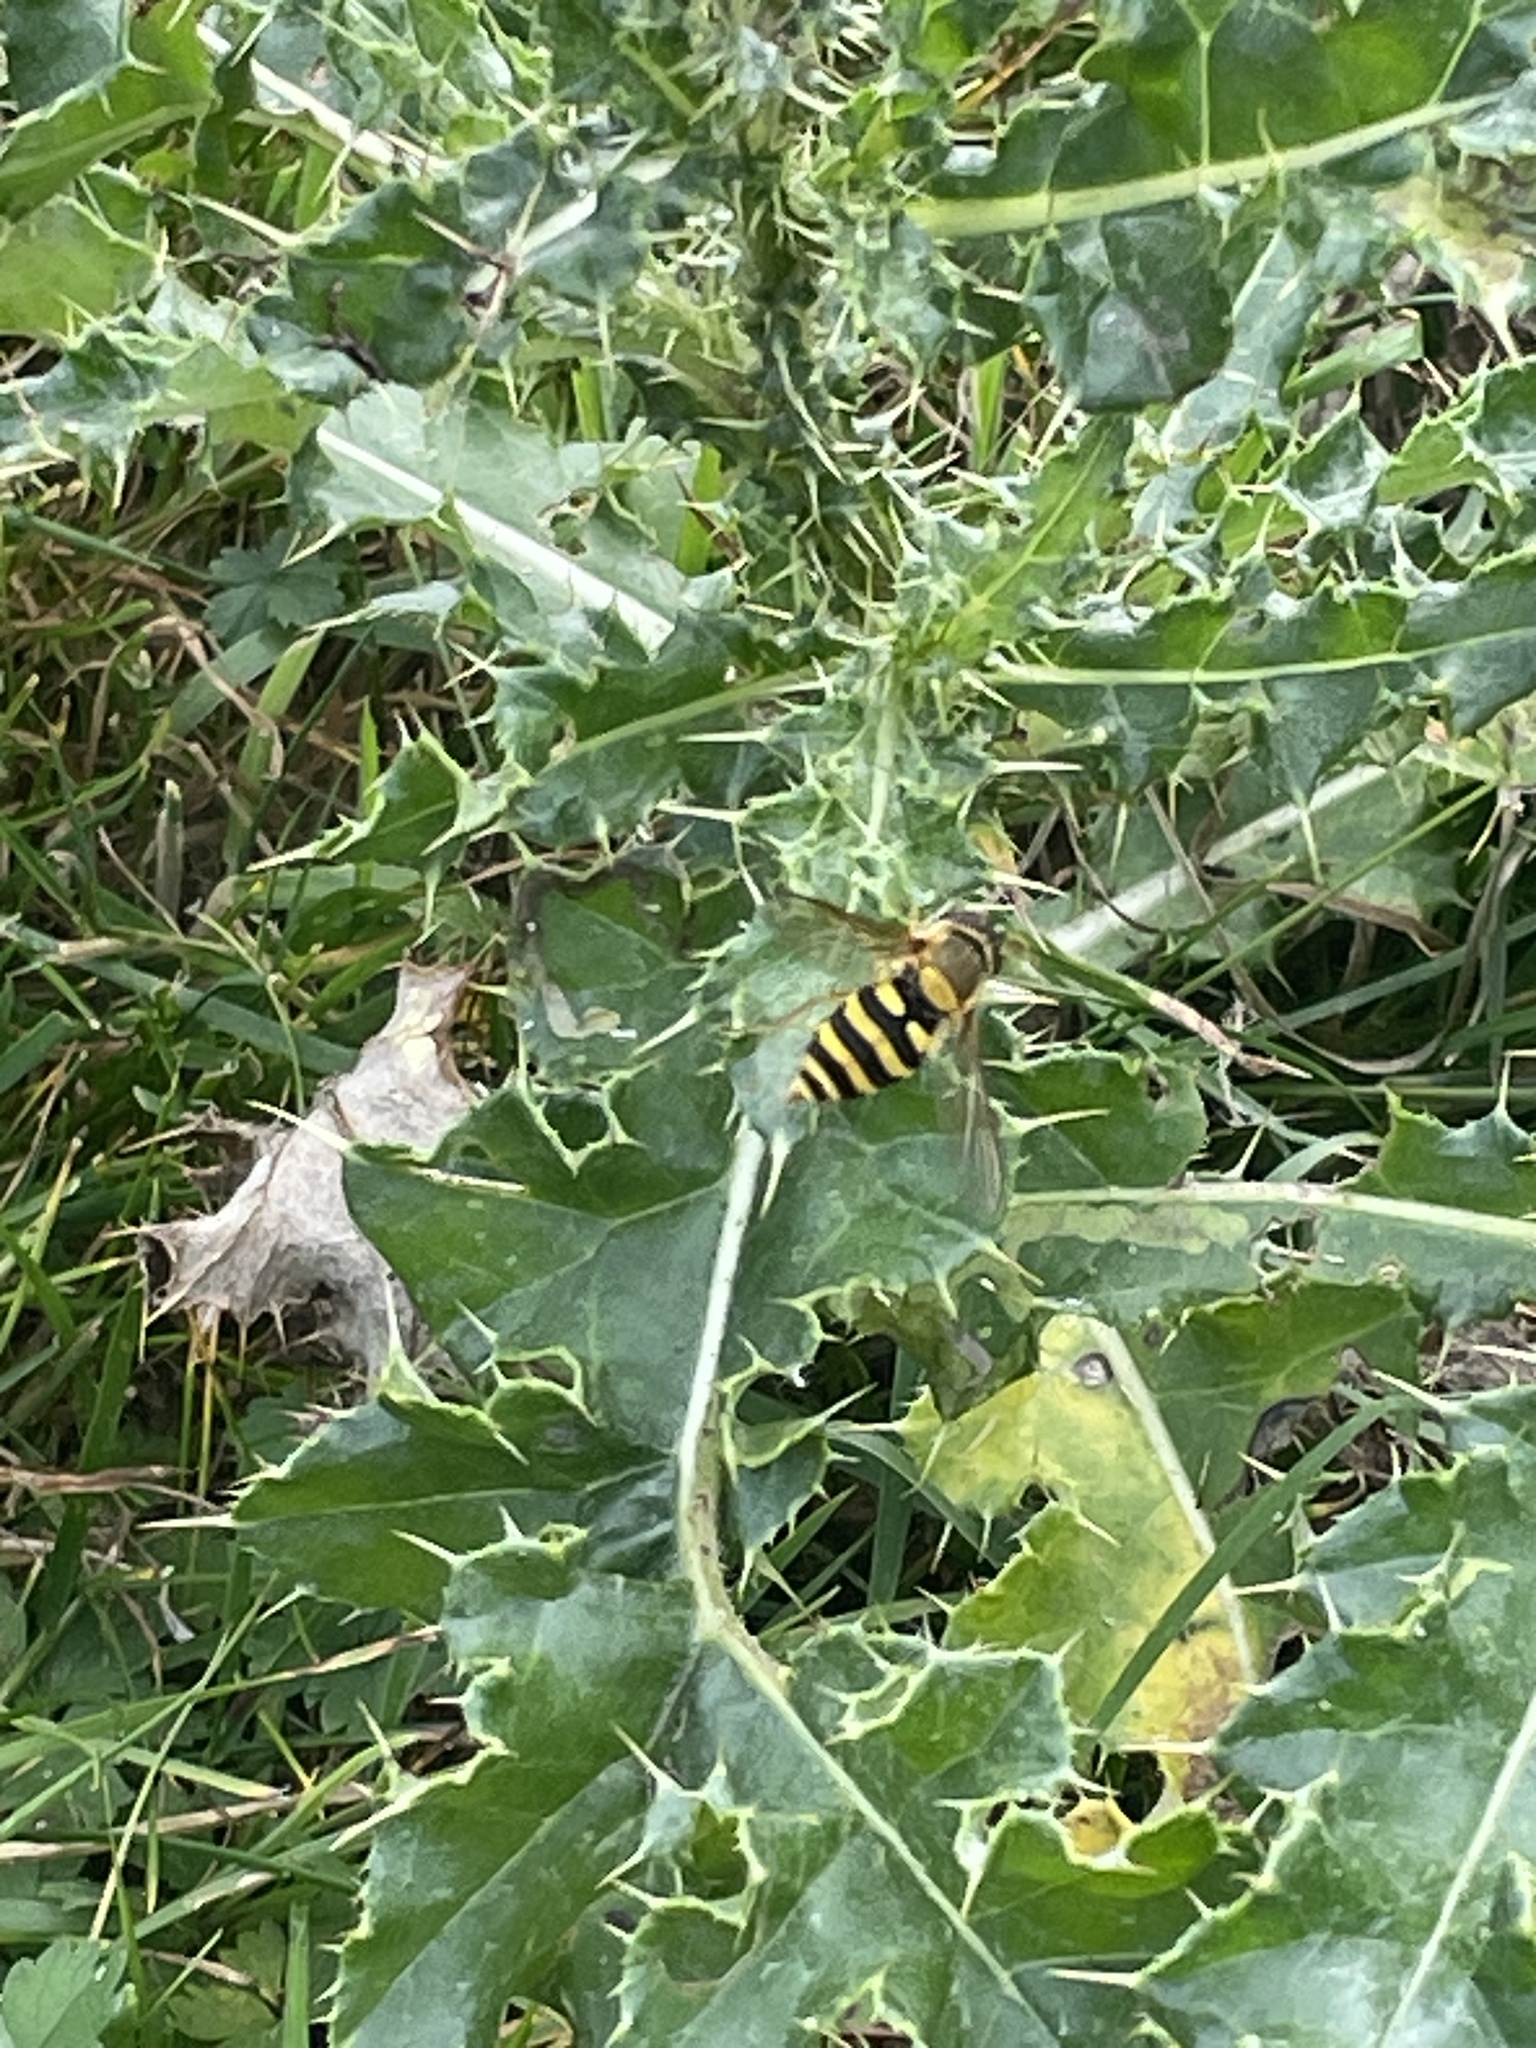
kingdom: Animalia
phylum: Arthropoda
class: Insecta
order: Diptera
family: Syrphidae
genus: Syrphus
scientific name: Syrphus
